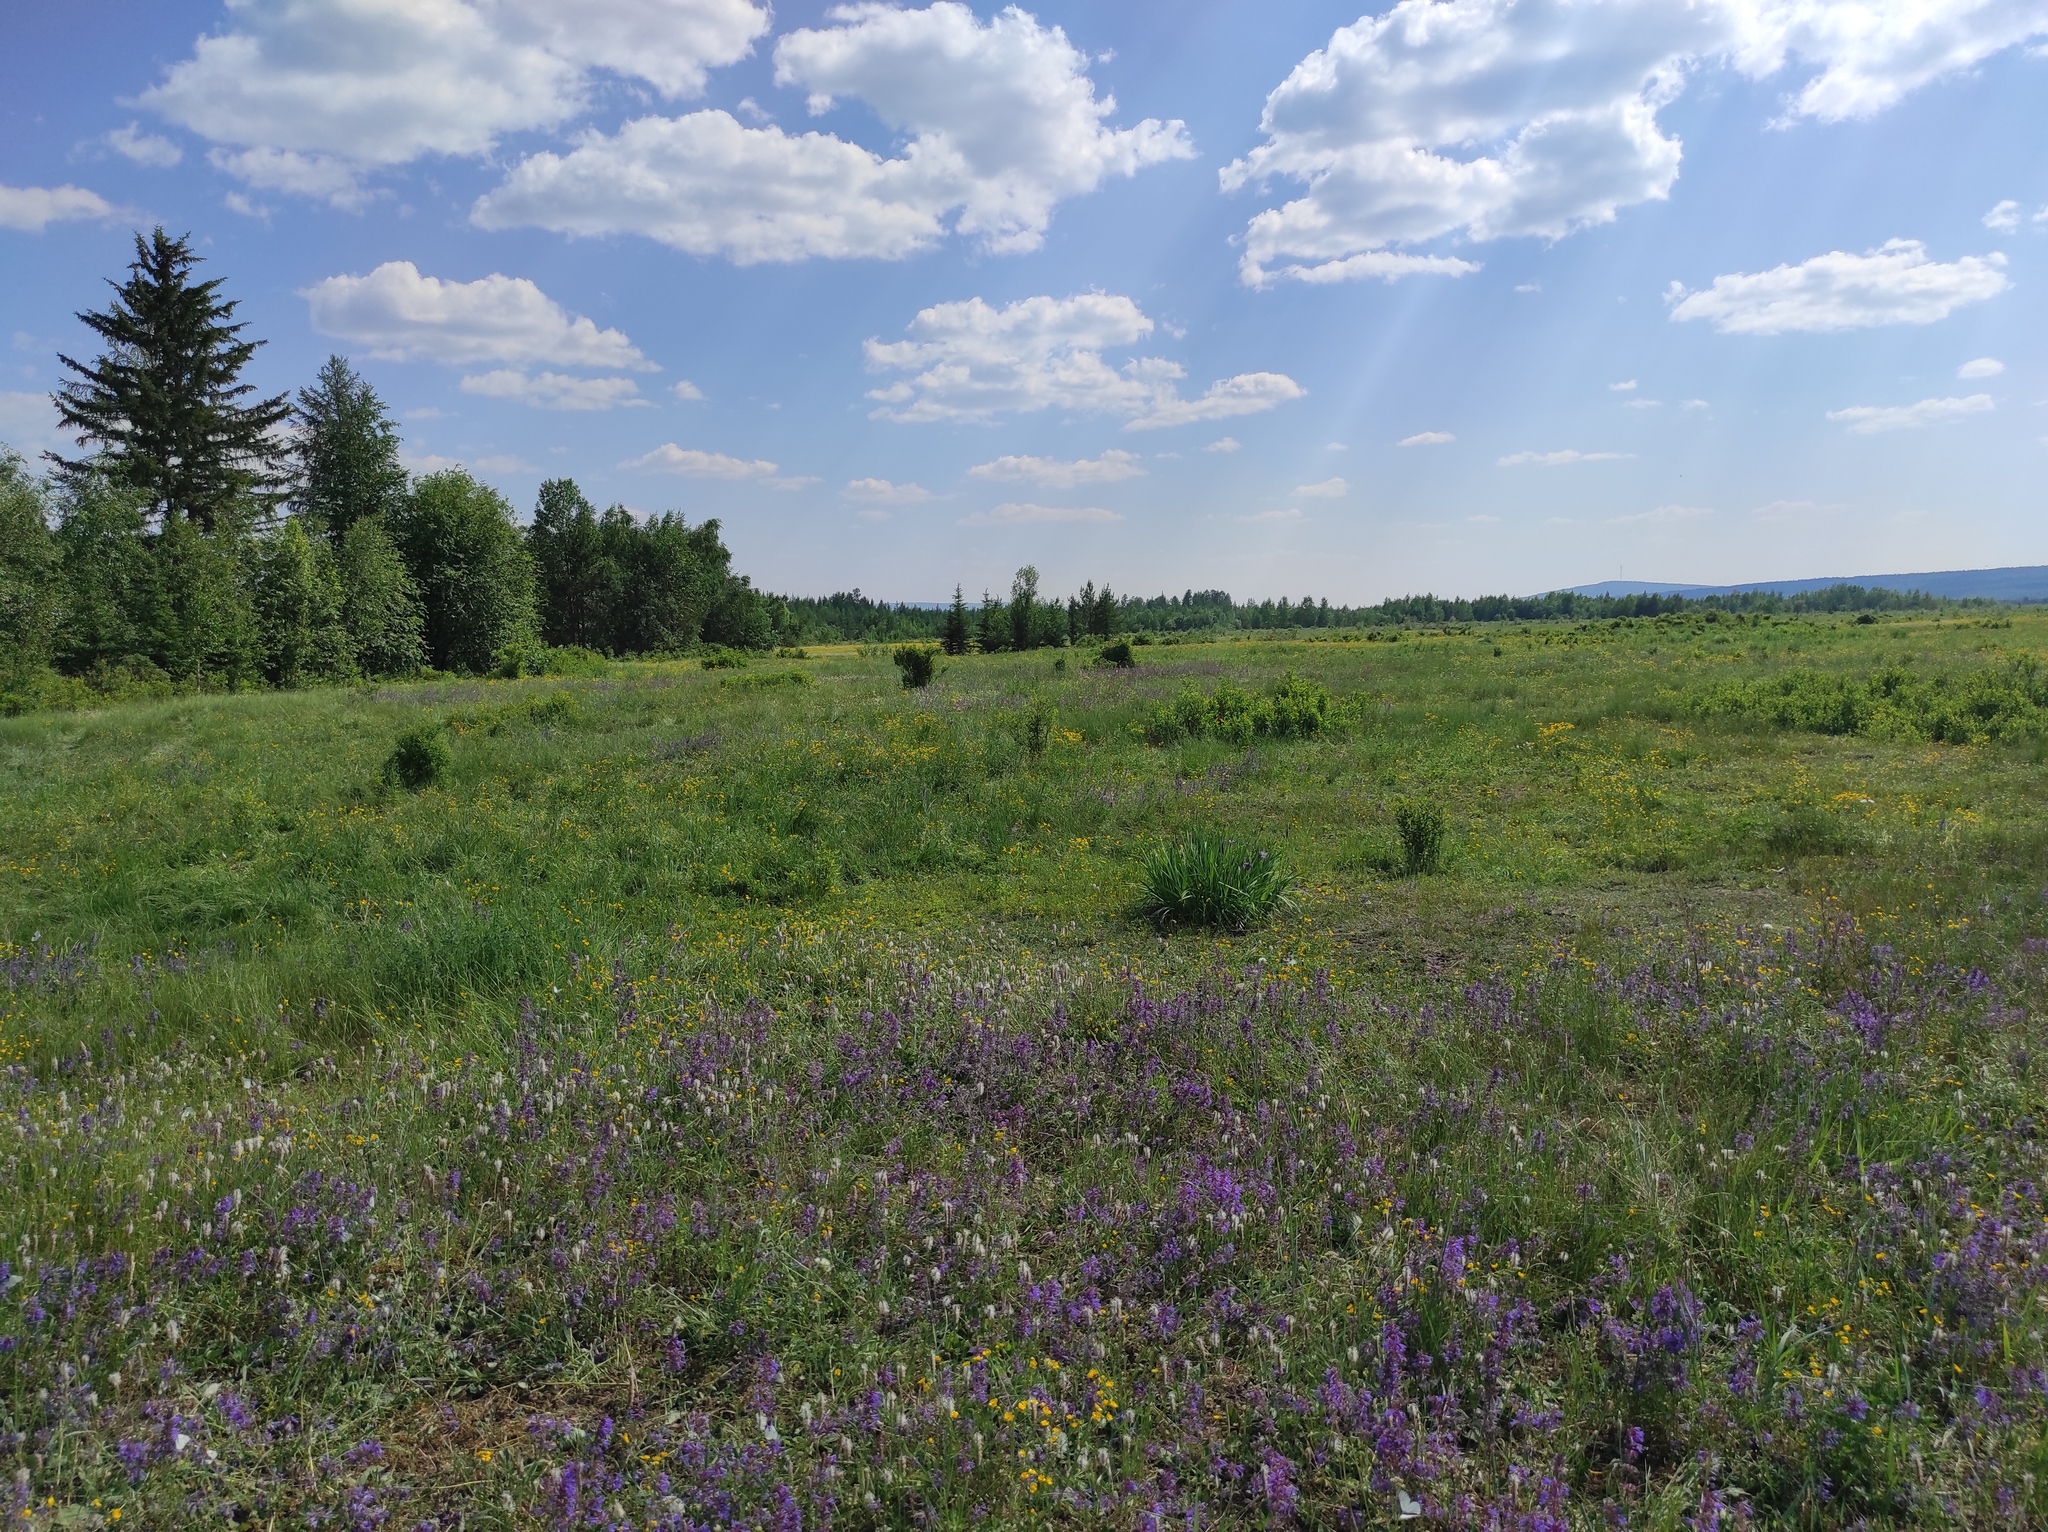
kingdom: Animalia
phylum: Arthropoda
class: Insecta
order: Lepidoptera
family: Pieridae
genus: Aporia
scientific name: Aporia crataegi
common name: Black-veined white
